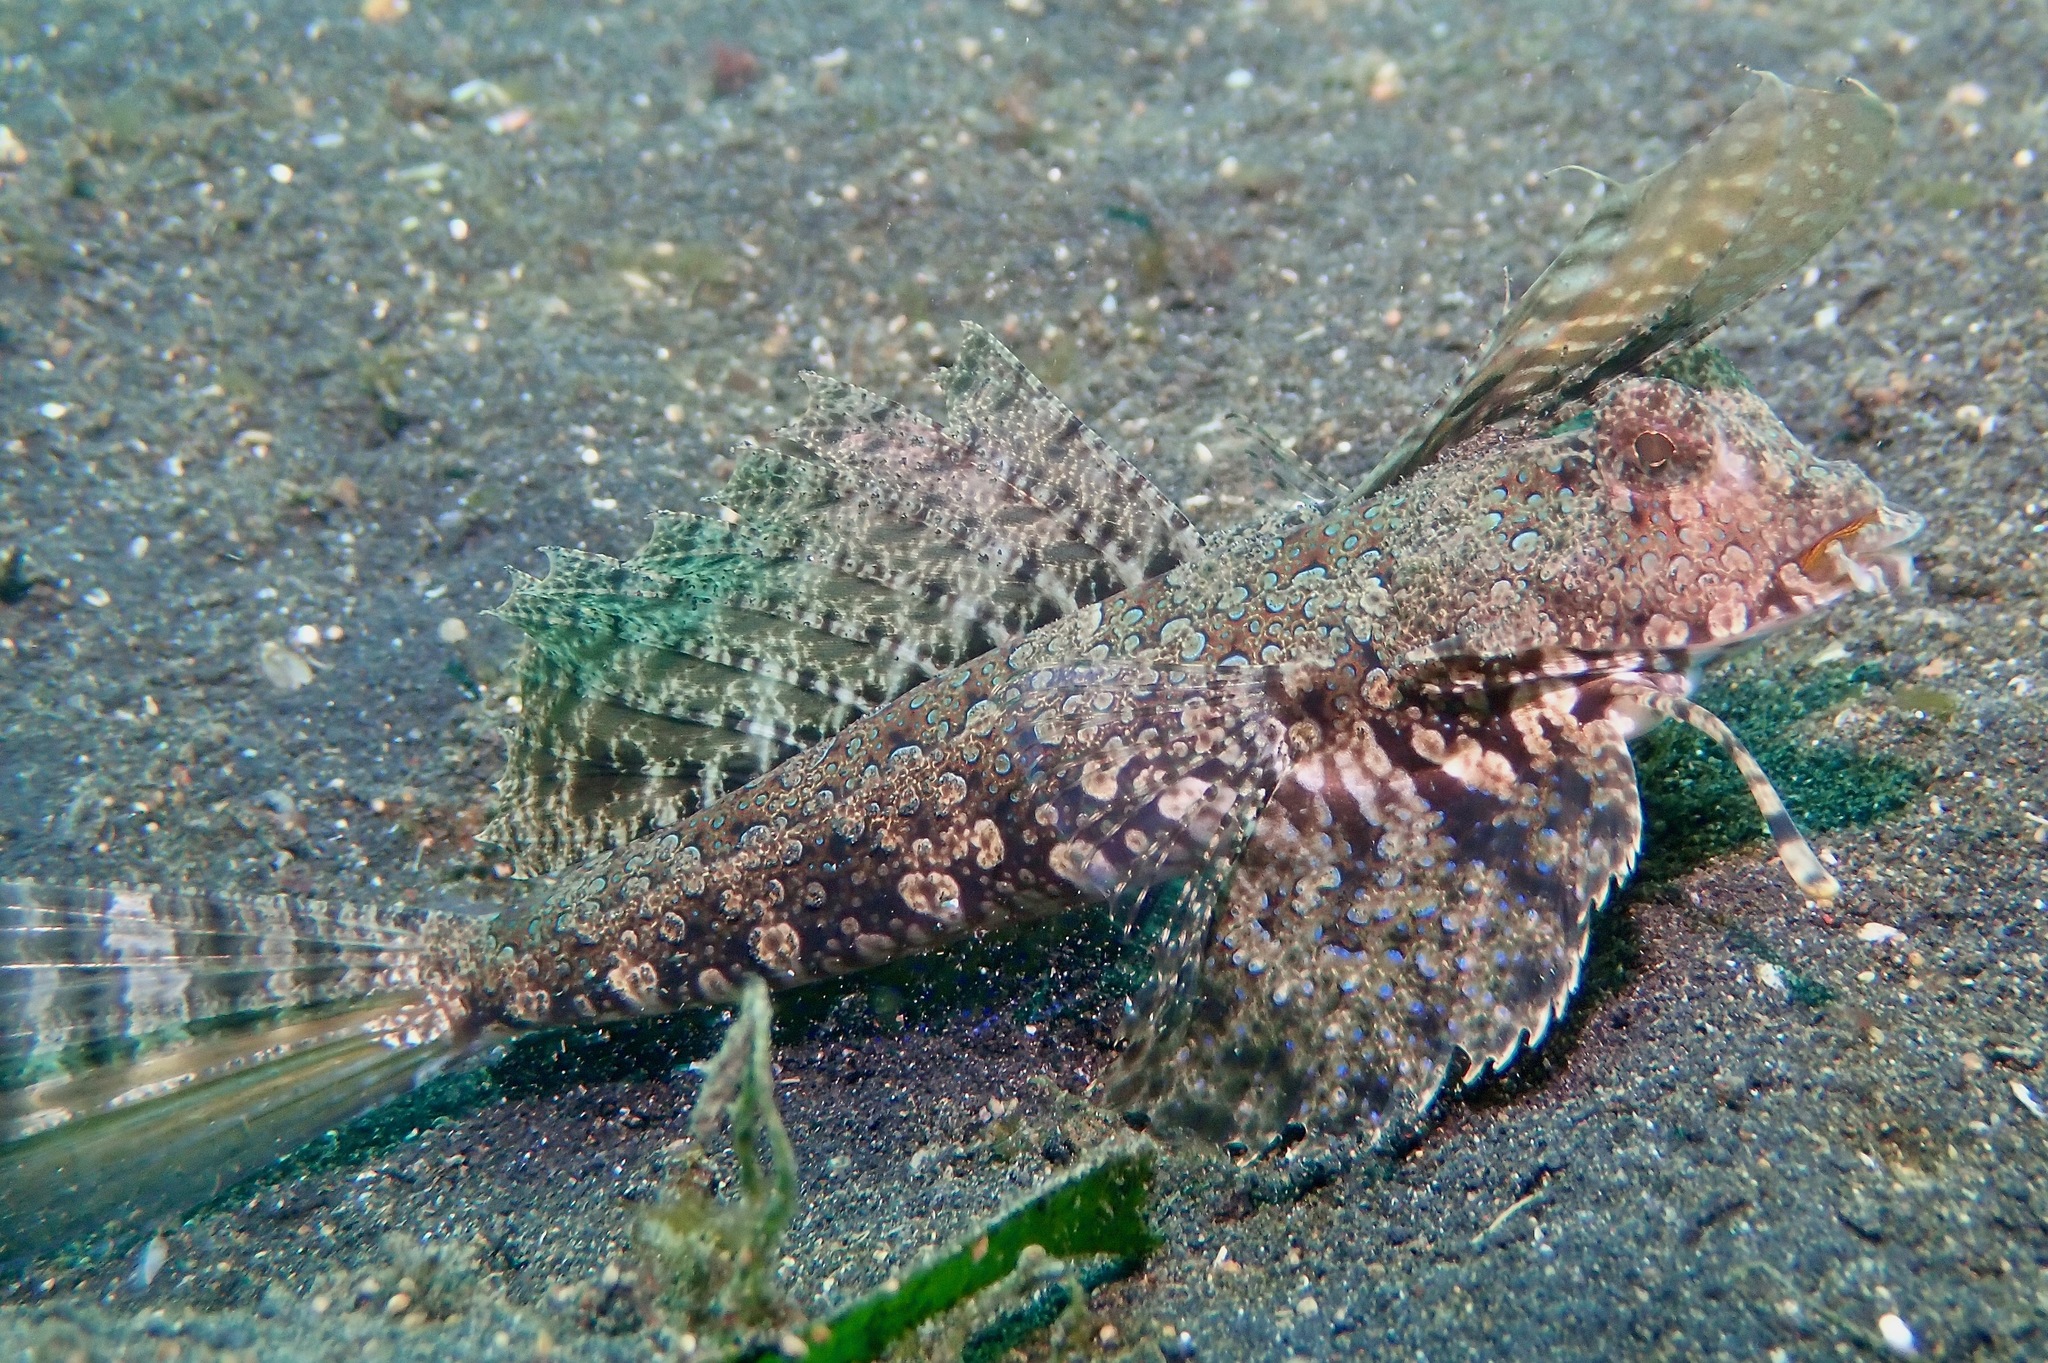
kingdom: Animalia
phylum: Chordata
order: Perciformes
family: Callionymidae
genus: Dactylopus
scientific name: Dactylopus kuiteri
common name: Kuiter's dragonet
